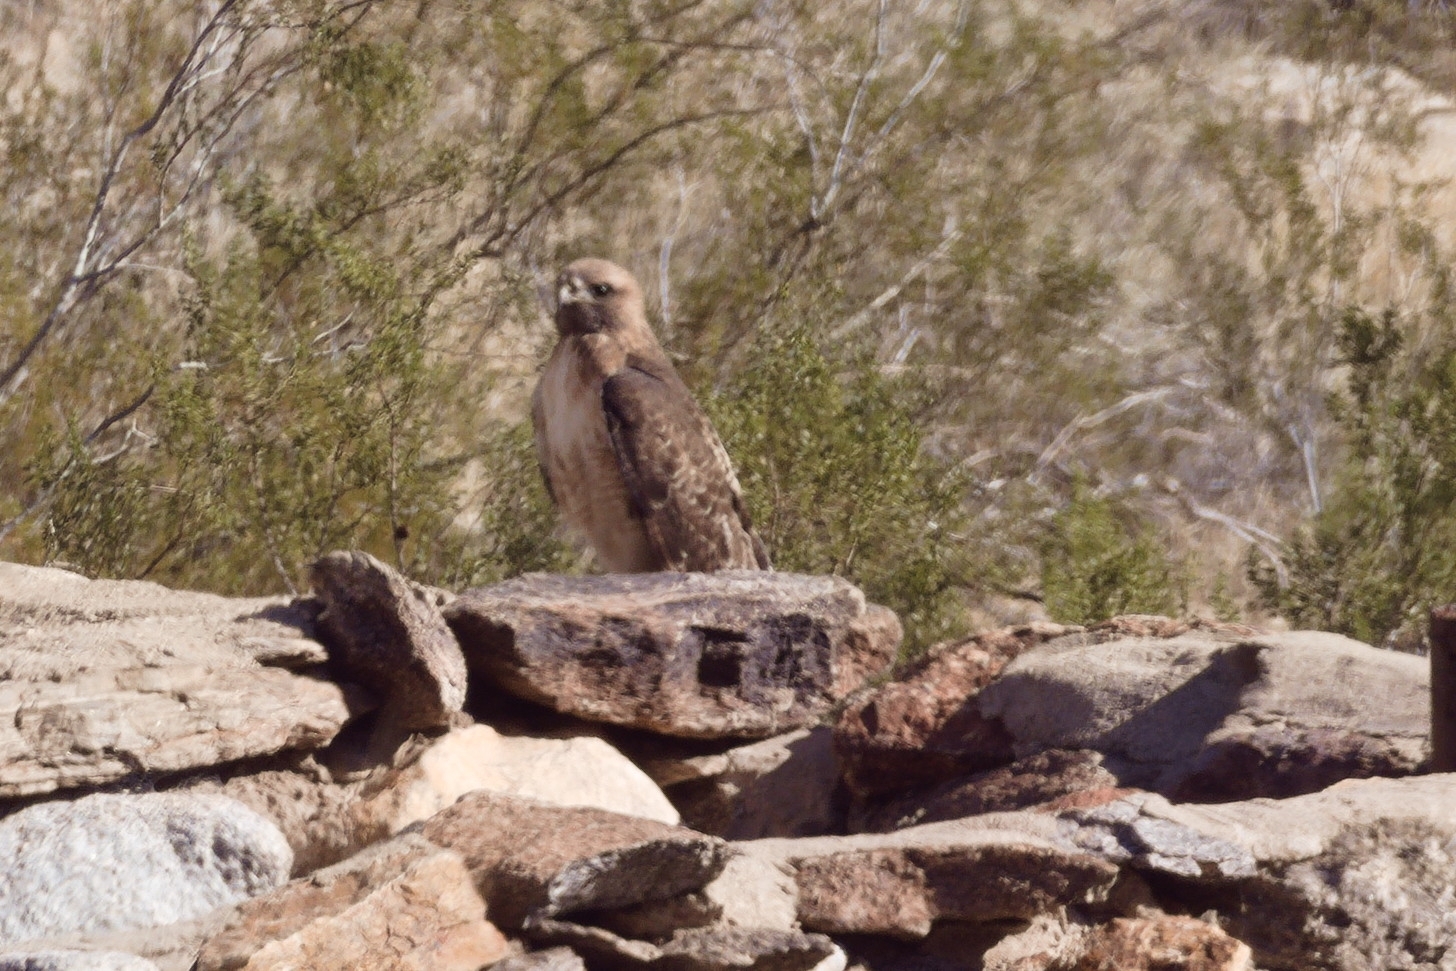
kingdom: Animalia
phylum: Chordata
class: Aves
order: Accipitriformes
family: Accipitridae
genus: Buteo
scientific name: Buteo jamaicensis
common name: Red-tailed hawk
